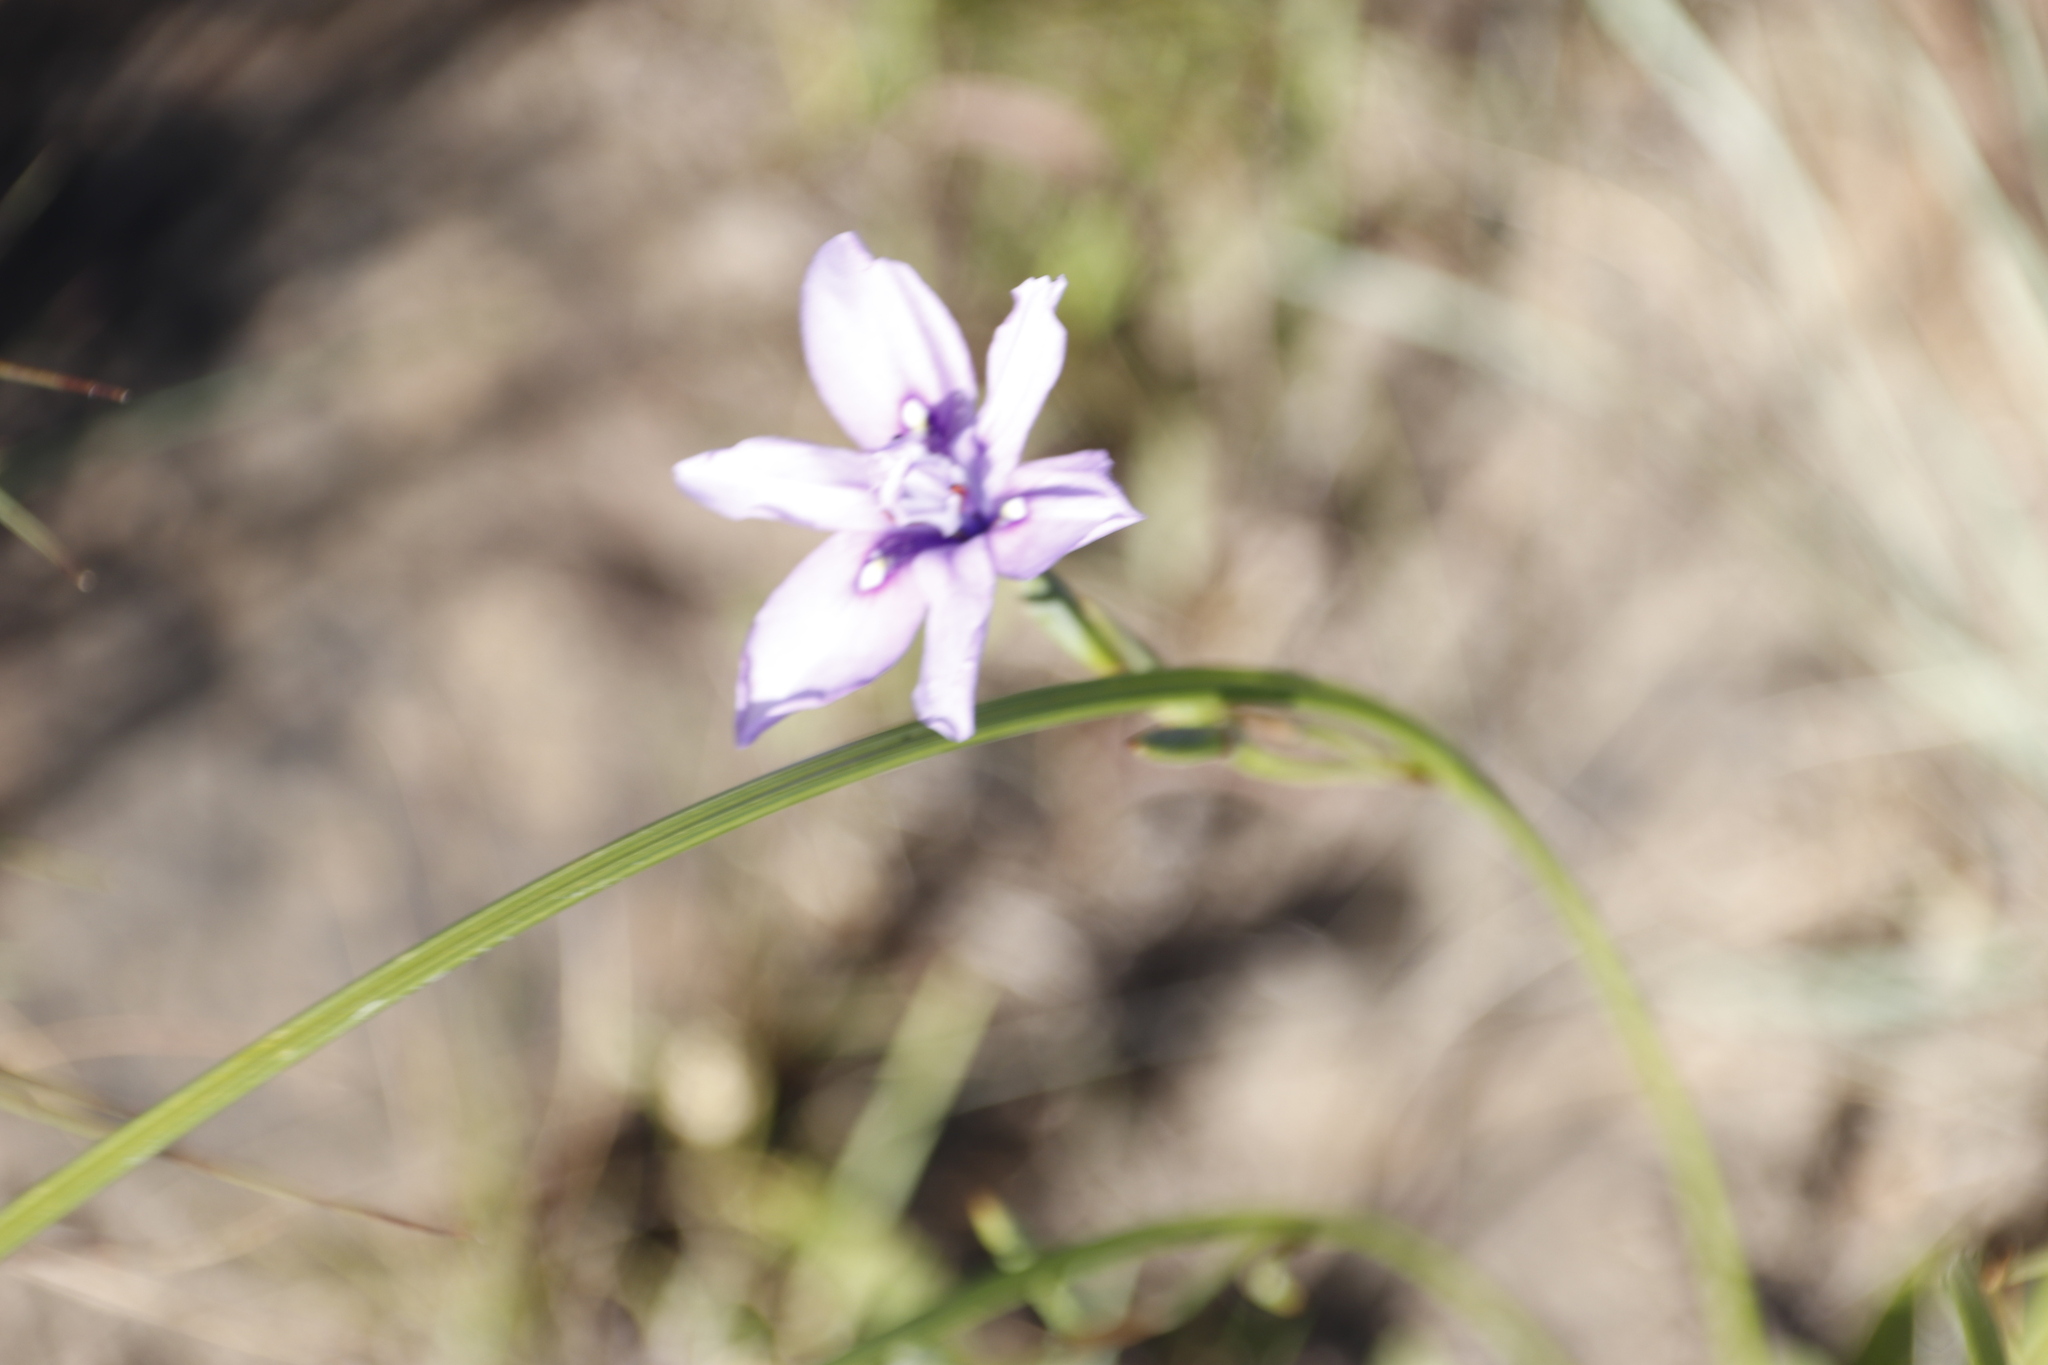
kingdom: Plantae
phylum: Tracheophyta
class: Liliopsida
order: Asparagales
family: Iridaceae
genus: Moraea
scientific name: Moraea inclinata
